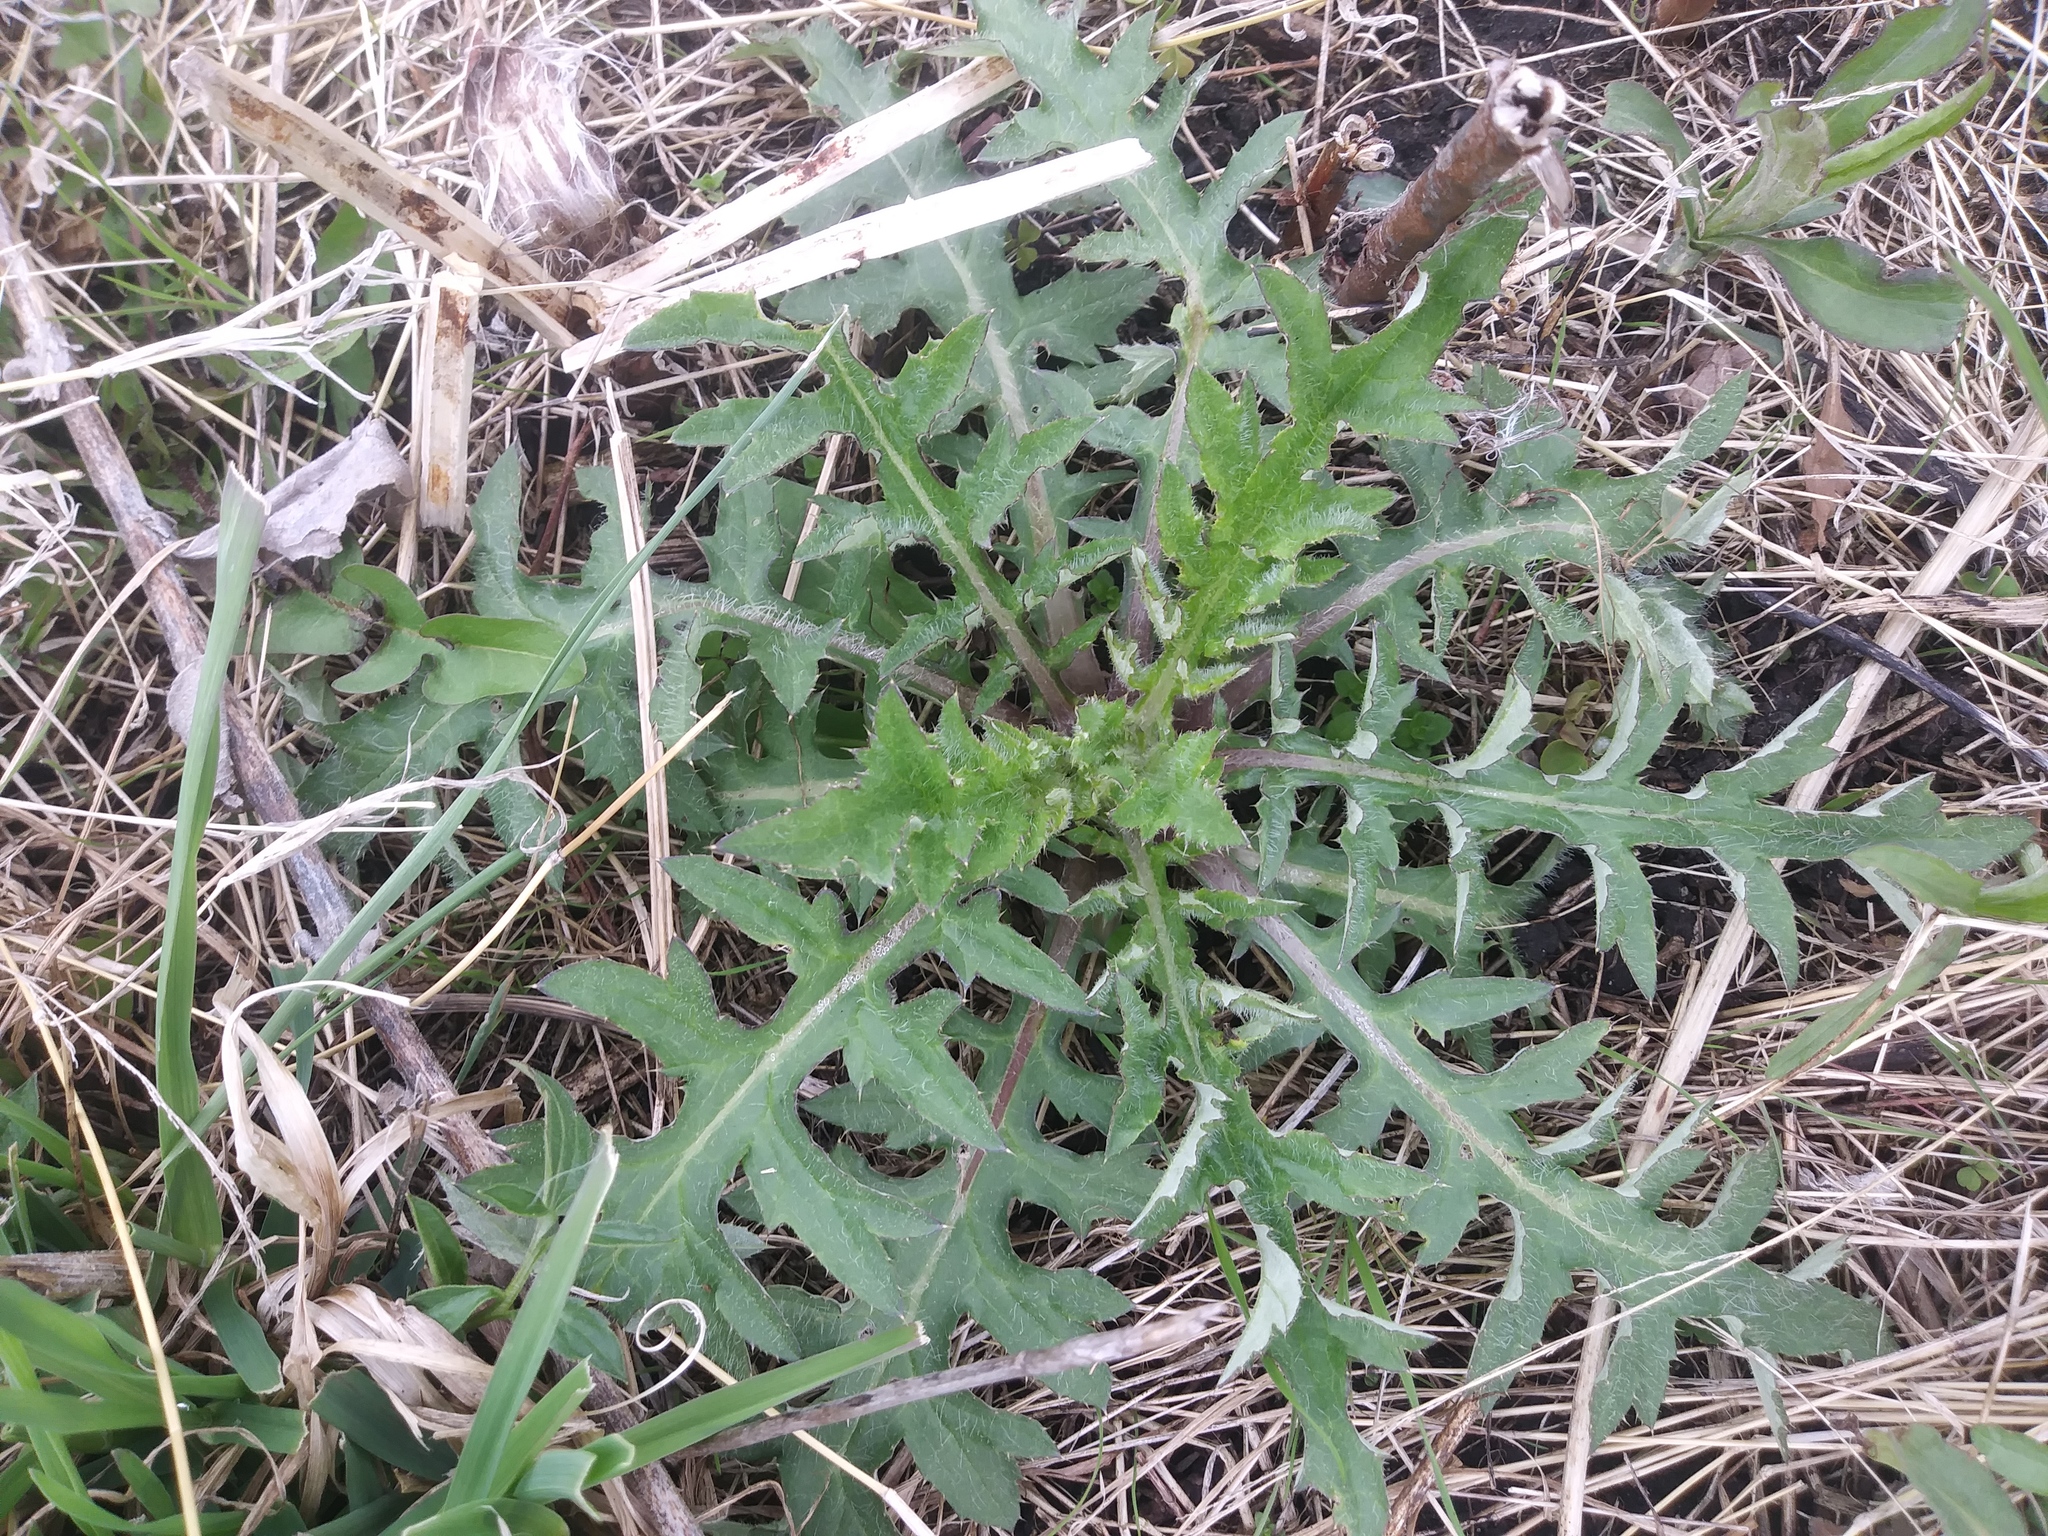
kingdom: Plantae
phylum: Tracheophyta
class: Magnoliopsida
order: Asterales
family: Asteraceae
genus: Cirsium
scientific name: Cirsium discolor
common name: Field thistle
